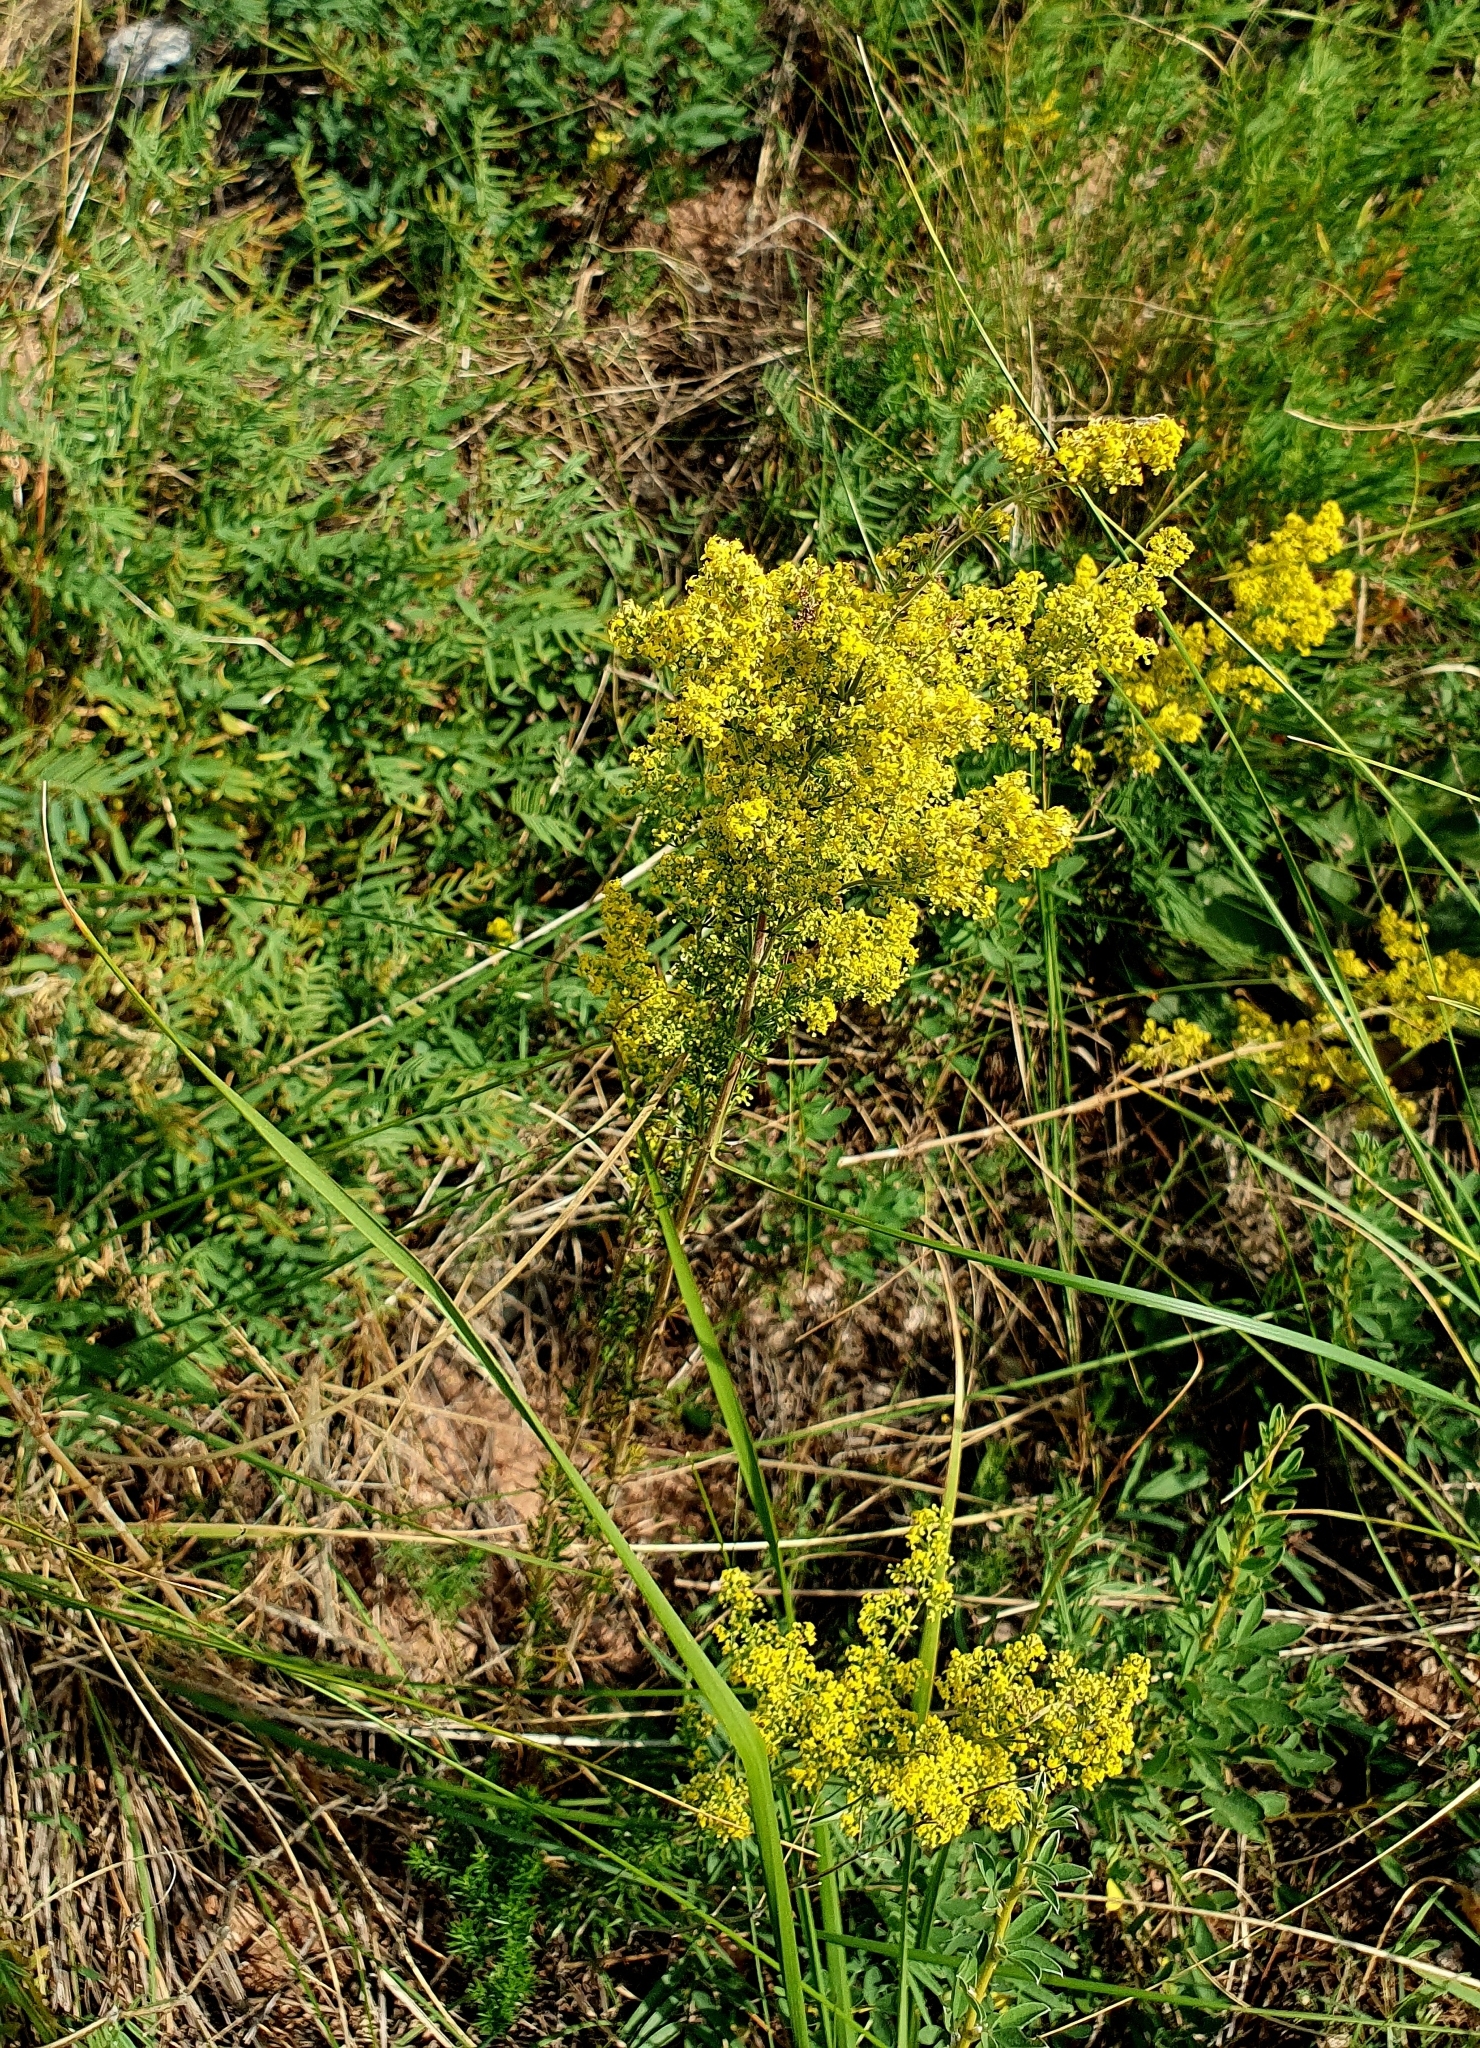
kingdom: Plantae
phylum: Tracheophyta
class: Magnoliopsida
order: Gentianales
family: Rubiaceae
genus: Galium
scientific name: Galium verum
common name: Lady's bedstraw
